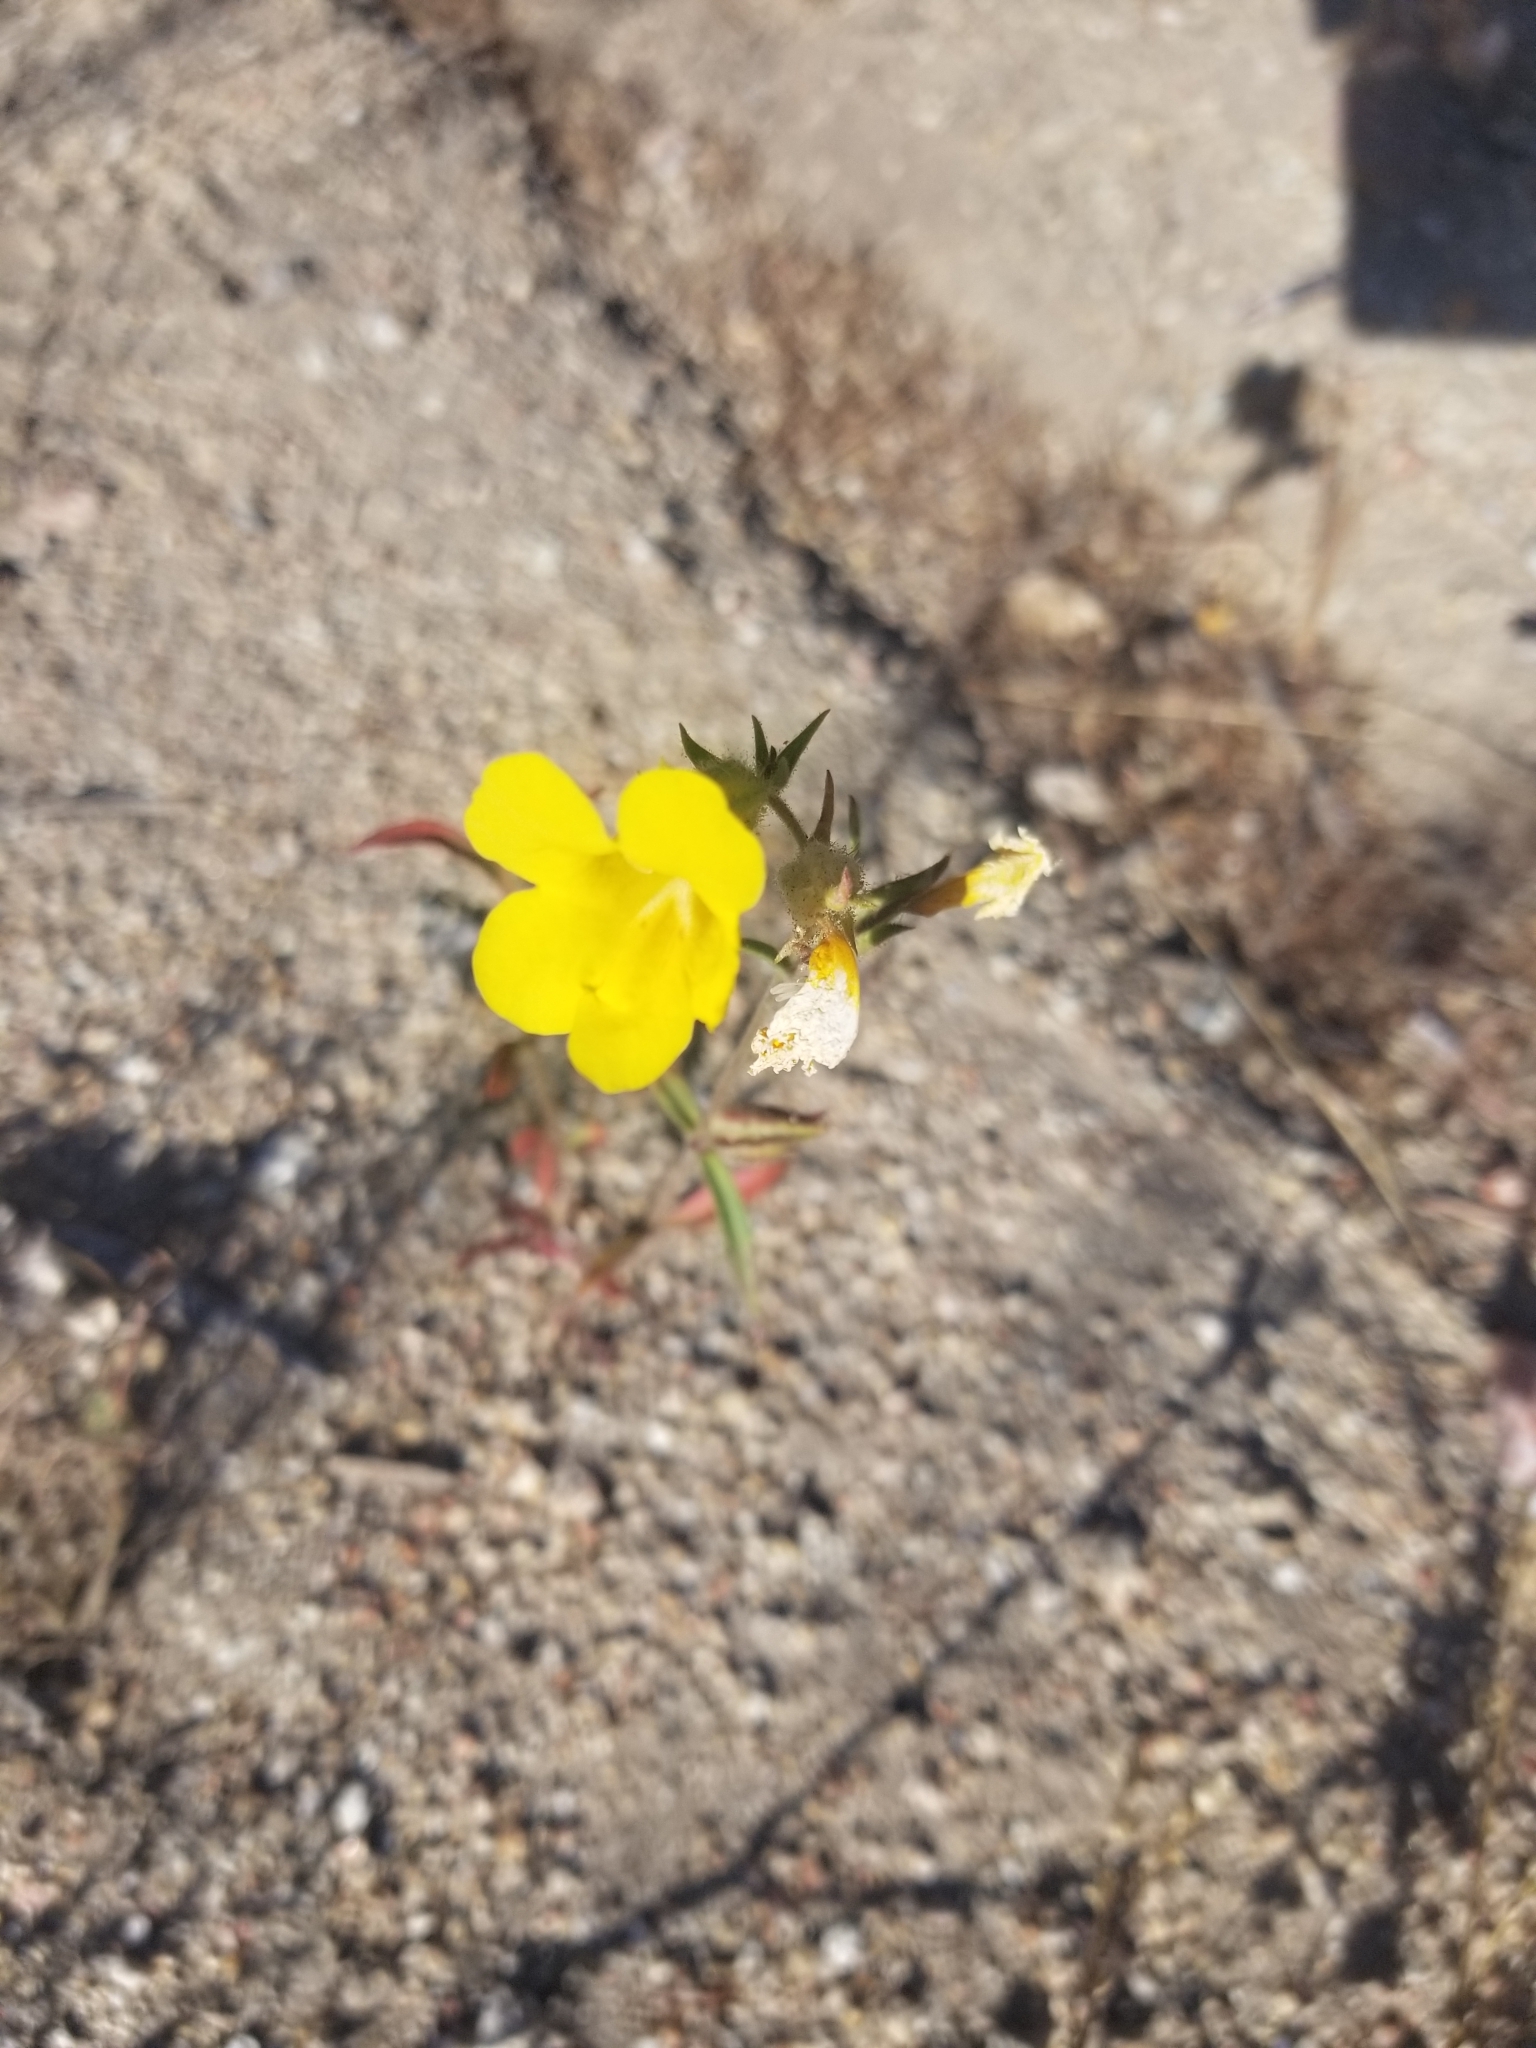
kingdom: Plantae
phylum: Tracheophyta
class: Magnoliopsida
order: Lamiales
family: Phrymaceae
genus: Diplacus
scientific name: Diplacus brevipes
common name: Wide-throat yellow monkey-flower
